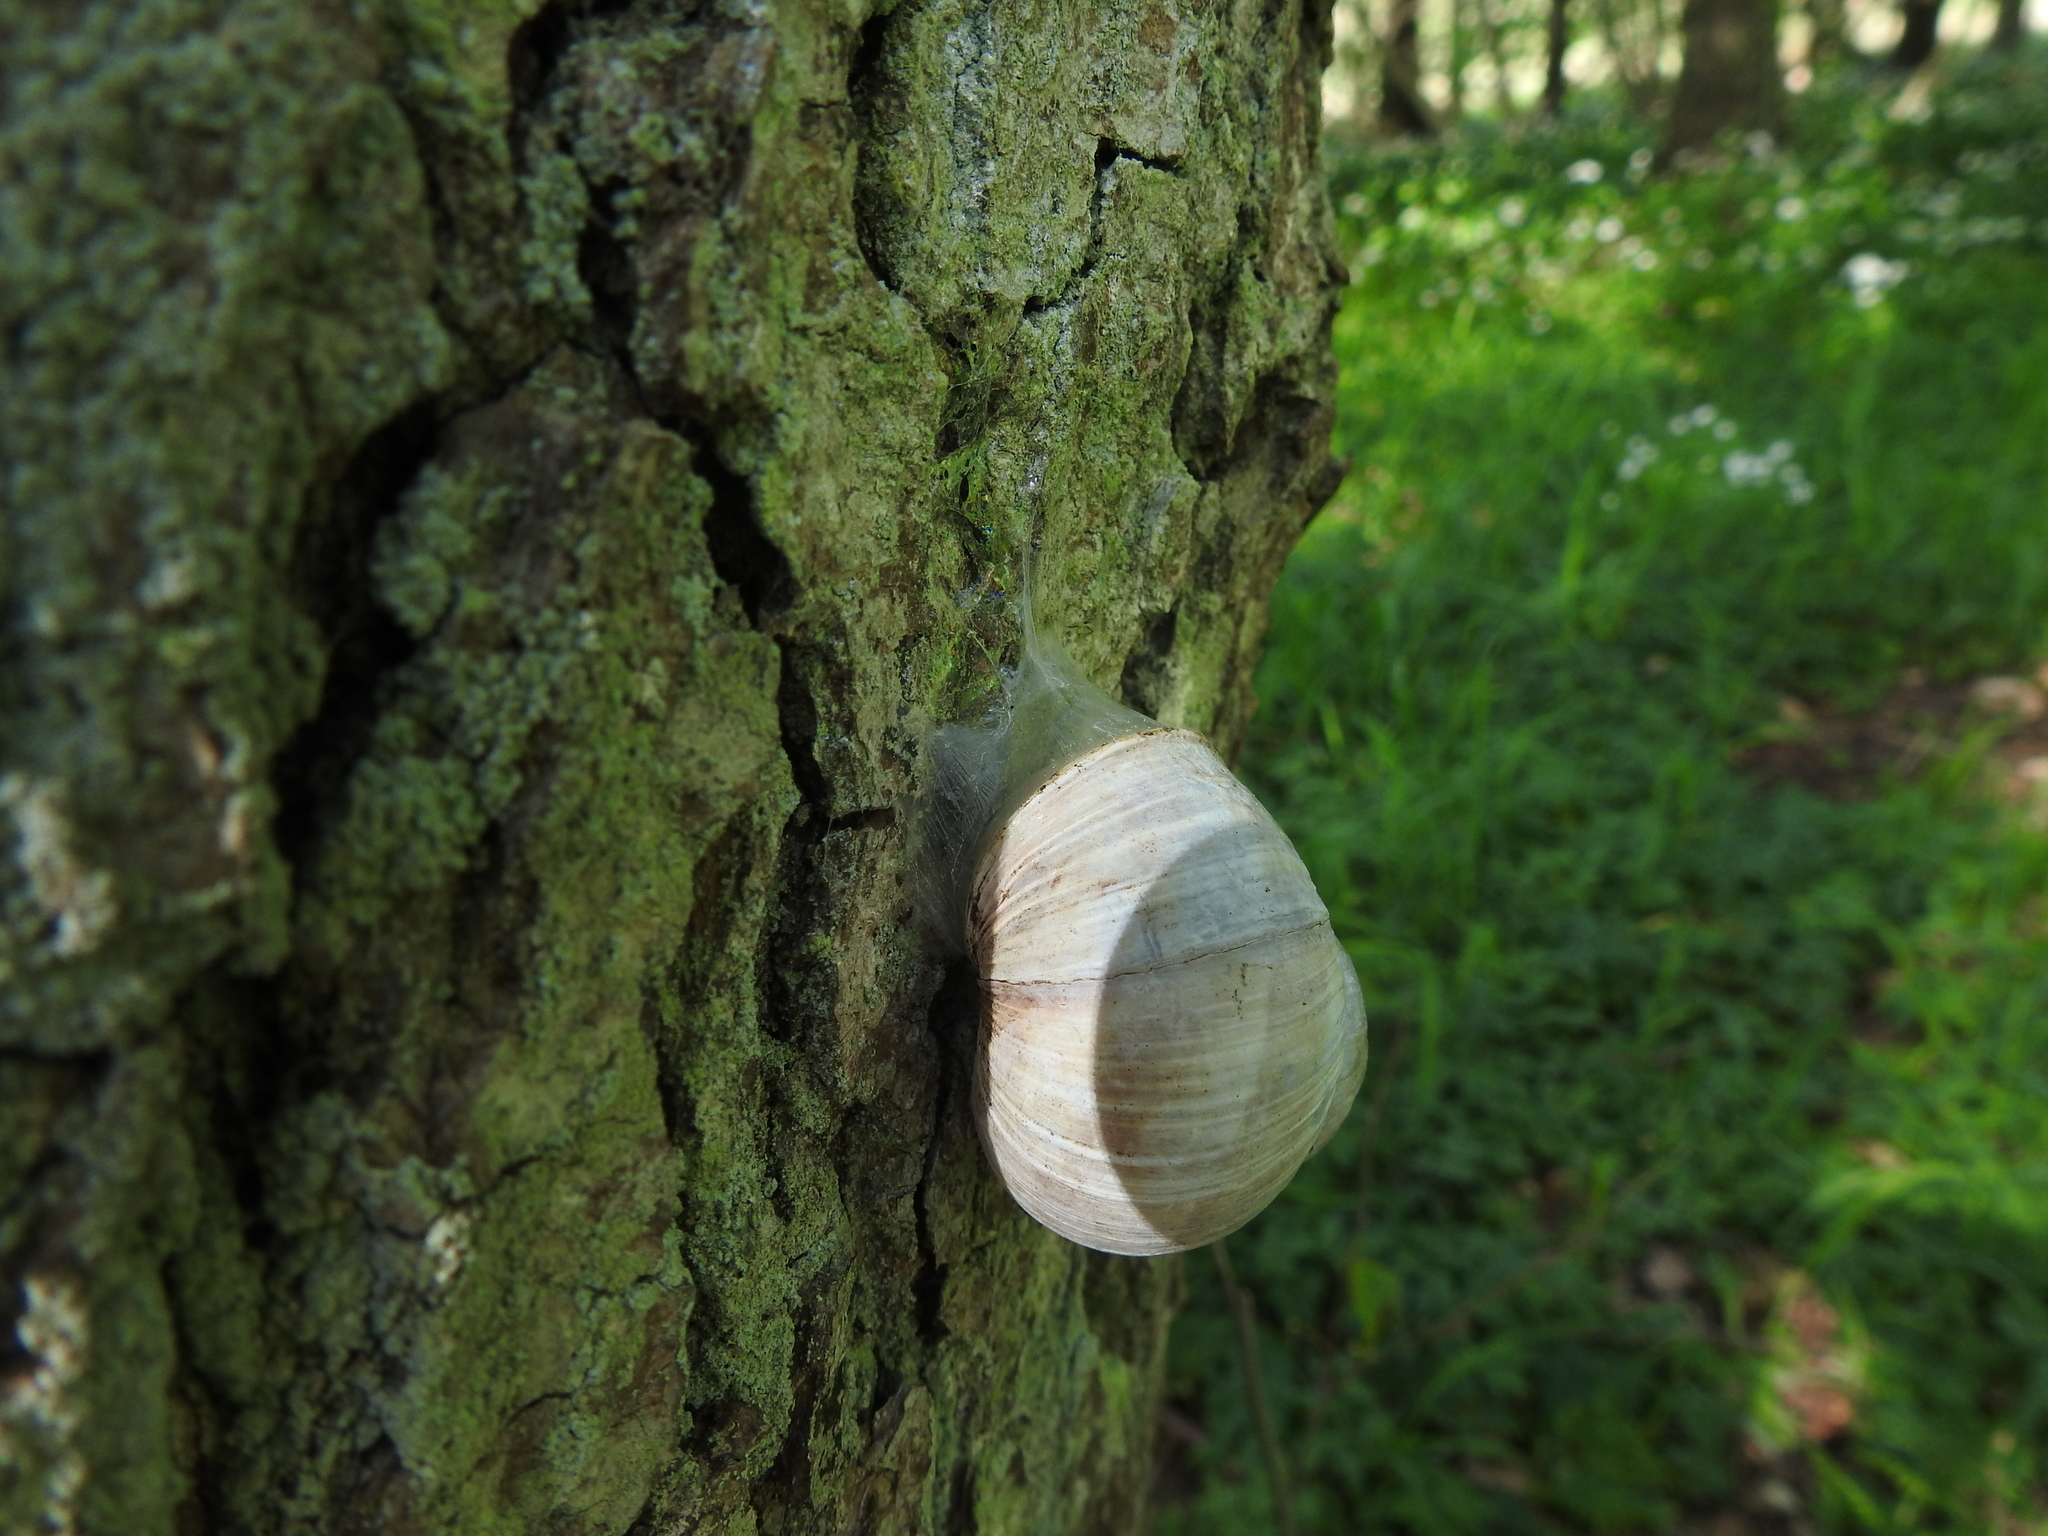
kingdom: Animalia
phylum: Mollusca
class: Gastropoda
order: Stylommatophora
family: Helicidae
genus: Helix
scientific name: Helix pomatia
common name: Roman snail
